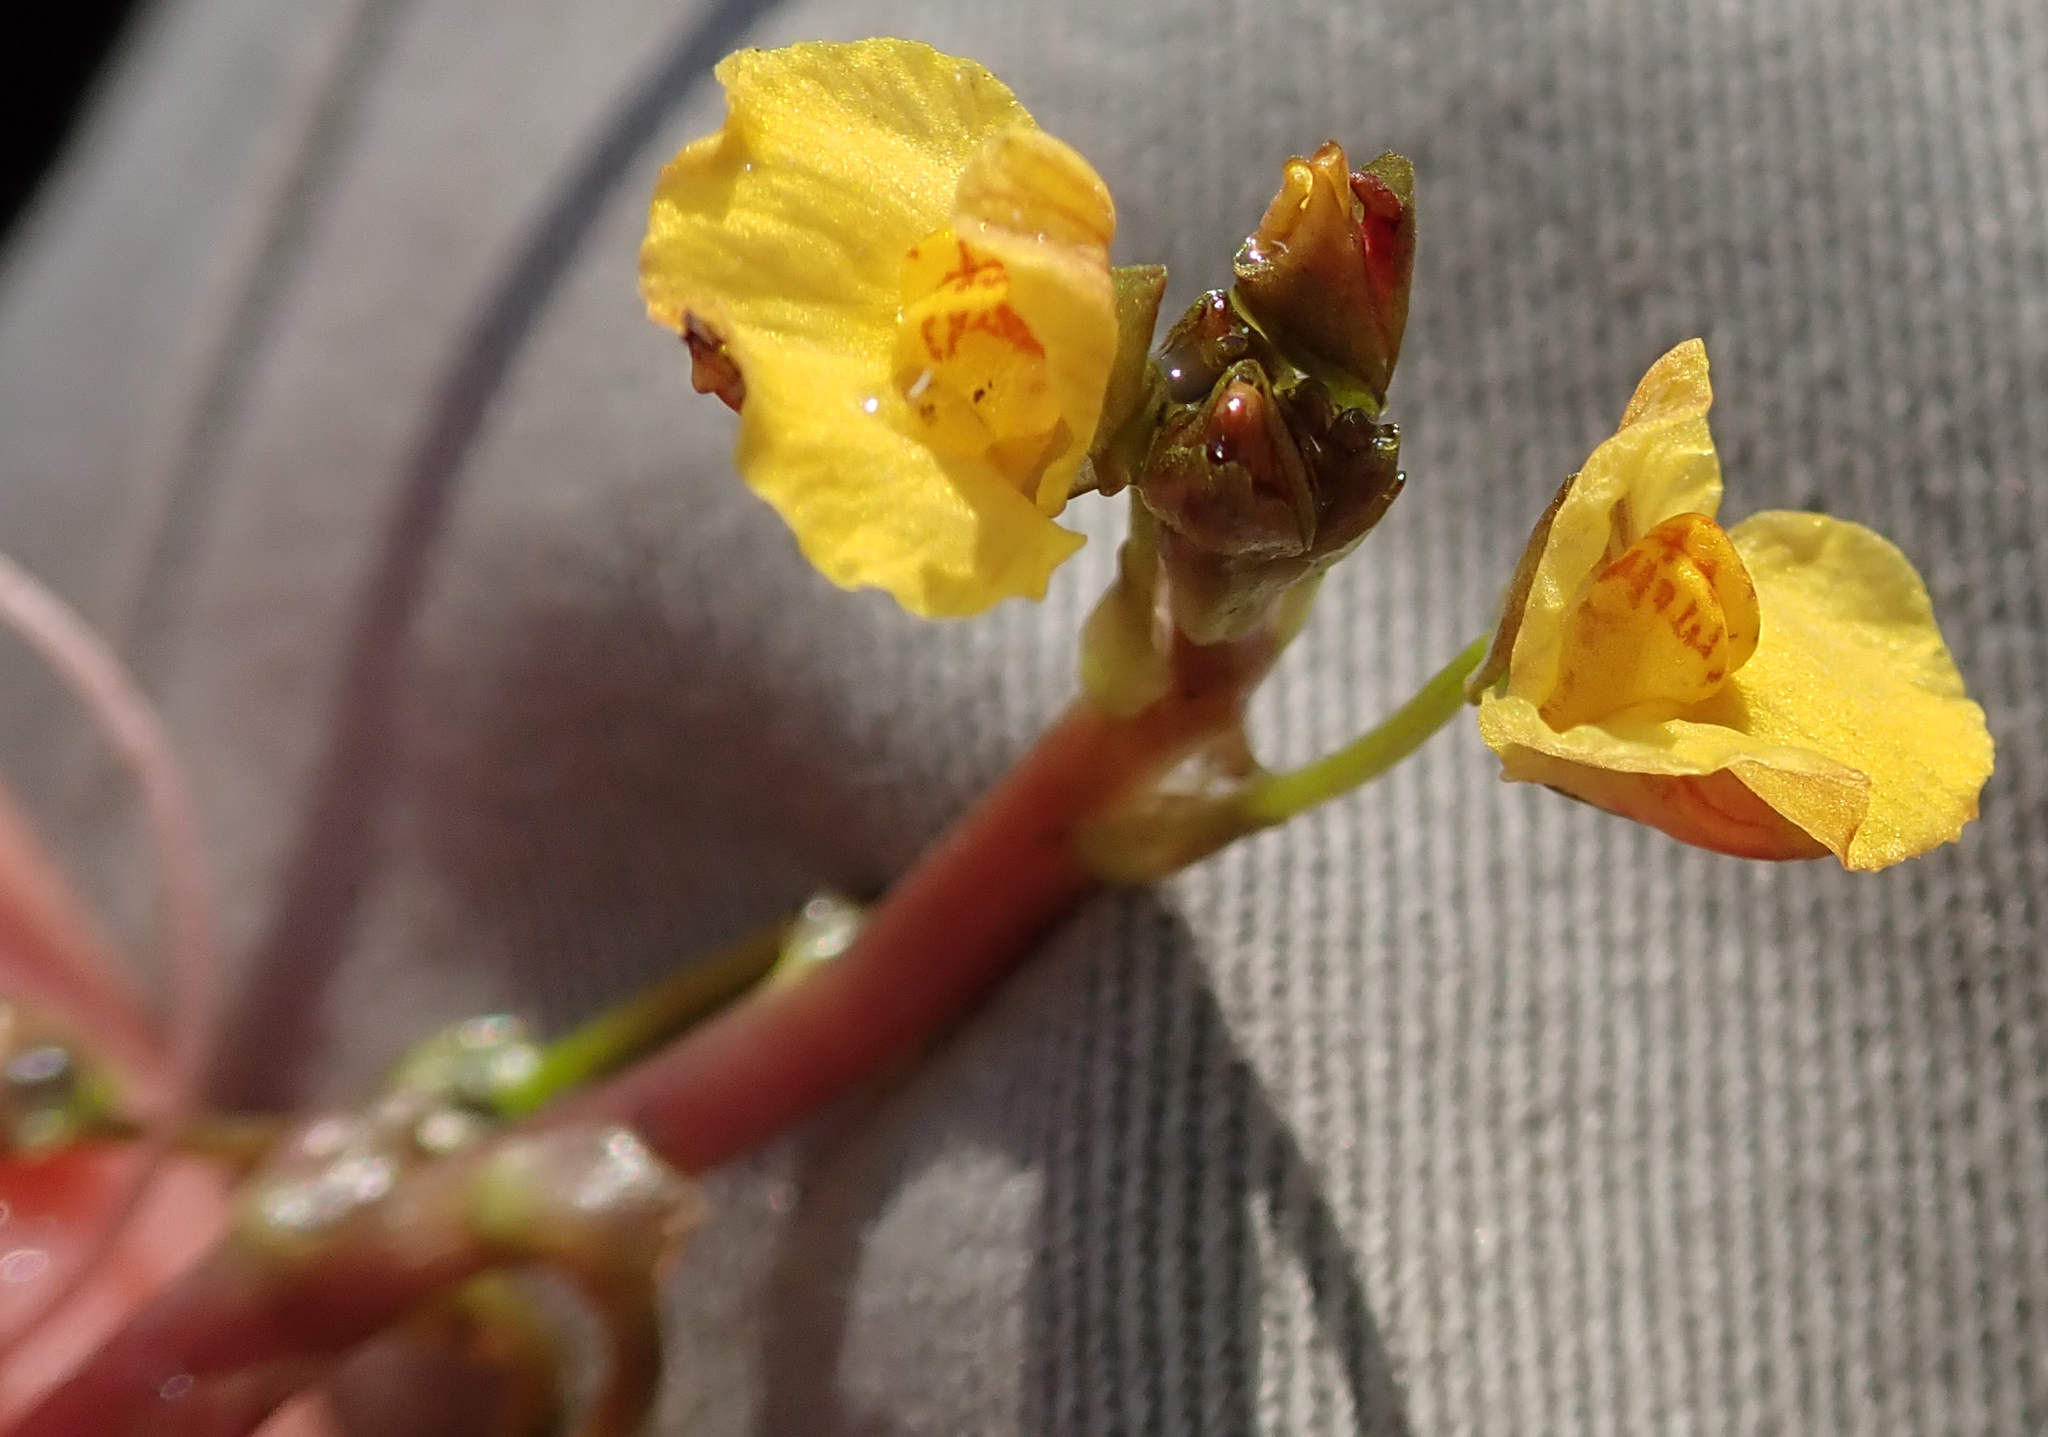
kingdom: Plantae
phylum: Tracheophyta
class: Magnoliopsida
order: Lamiales
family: Lentibulariaceae
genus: Utricularia
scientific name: Utricularia foliosa
